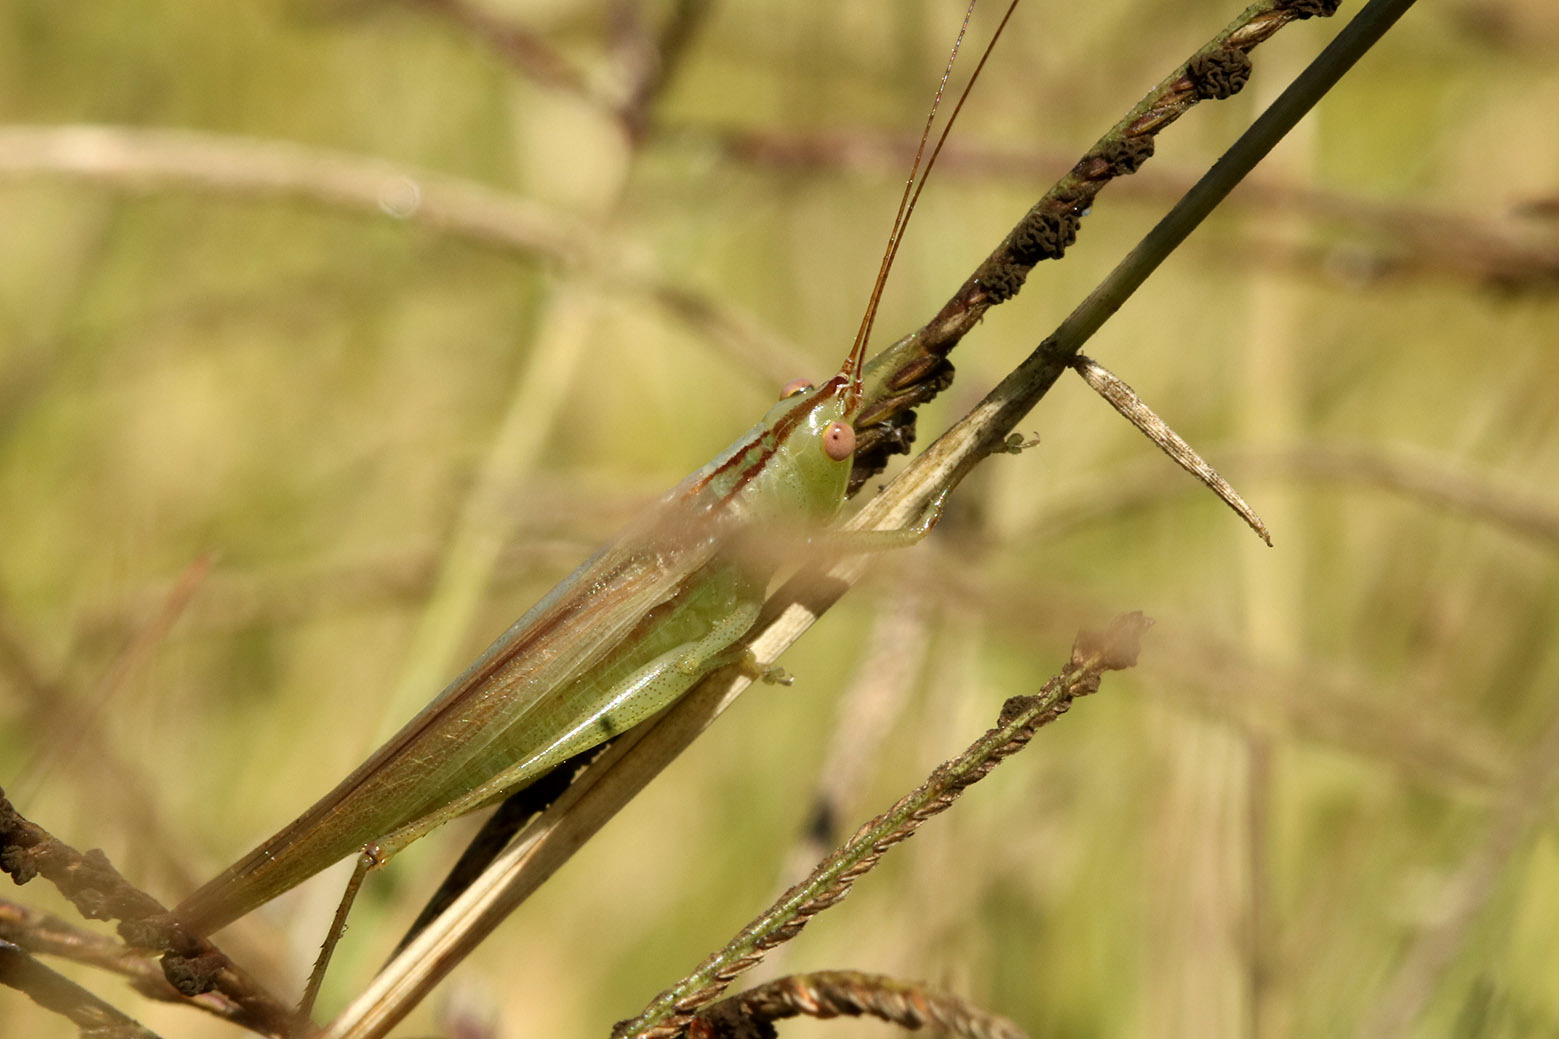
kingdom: Animalia
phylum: Arthropoda
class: Insecta
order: Orthoptera
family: Tettigoniidae
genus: Conocephalus
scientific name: Conocephalus longipes
